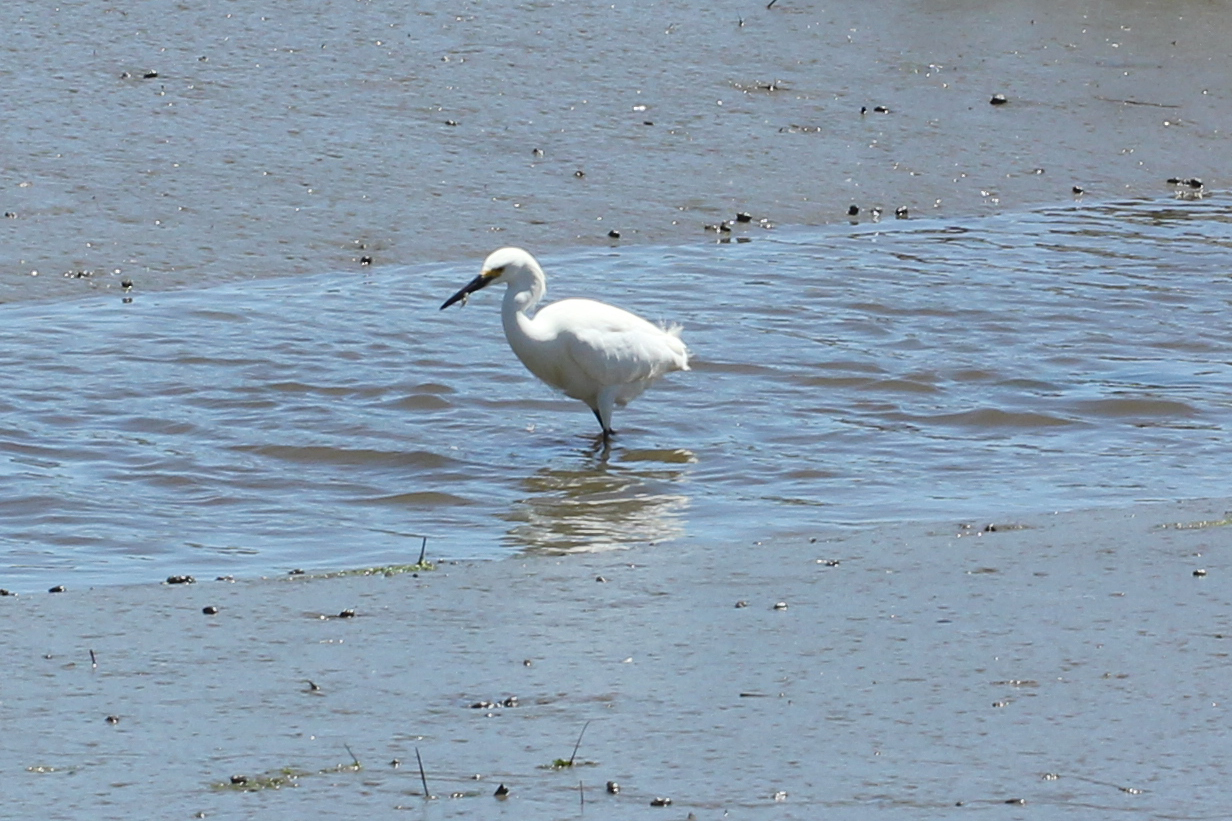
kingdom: Animalia
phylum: Chordata
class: Aves
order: Pelecaniformes
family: Ardeidae
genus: Egretta
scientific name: Egretta thula
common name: Snowy egret
